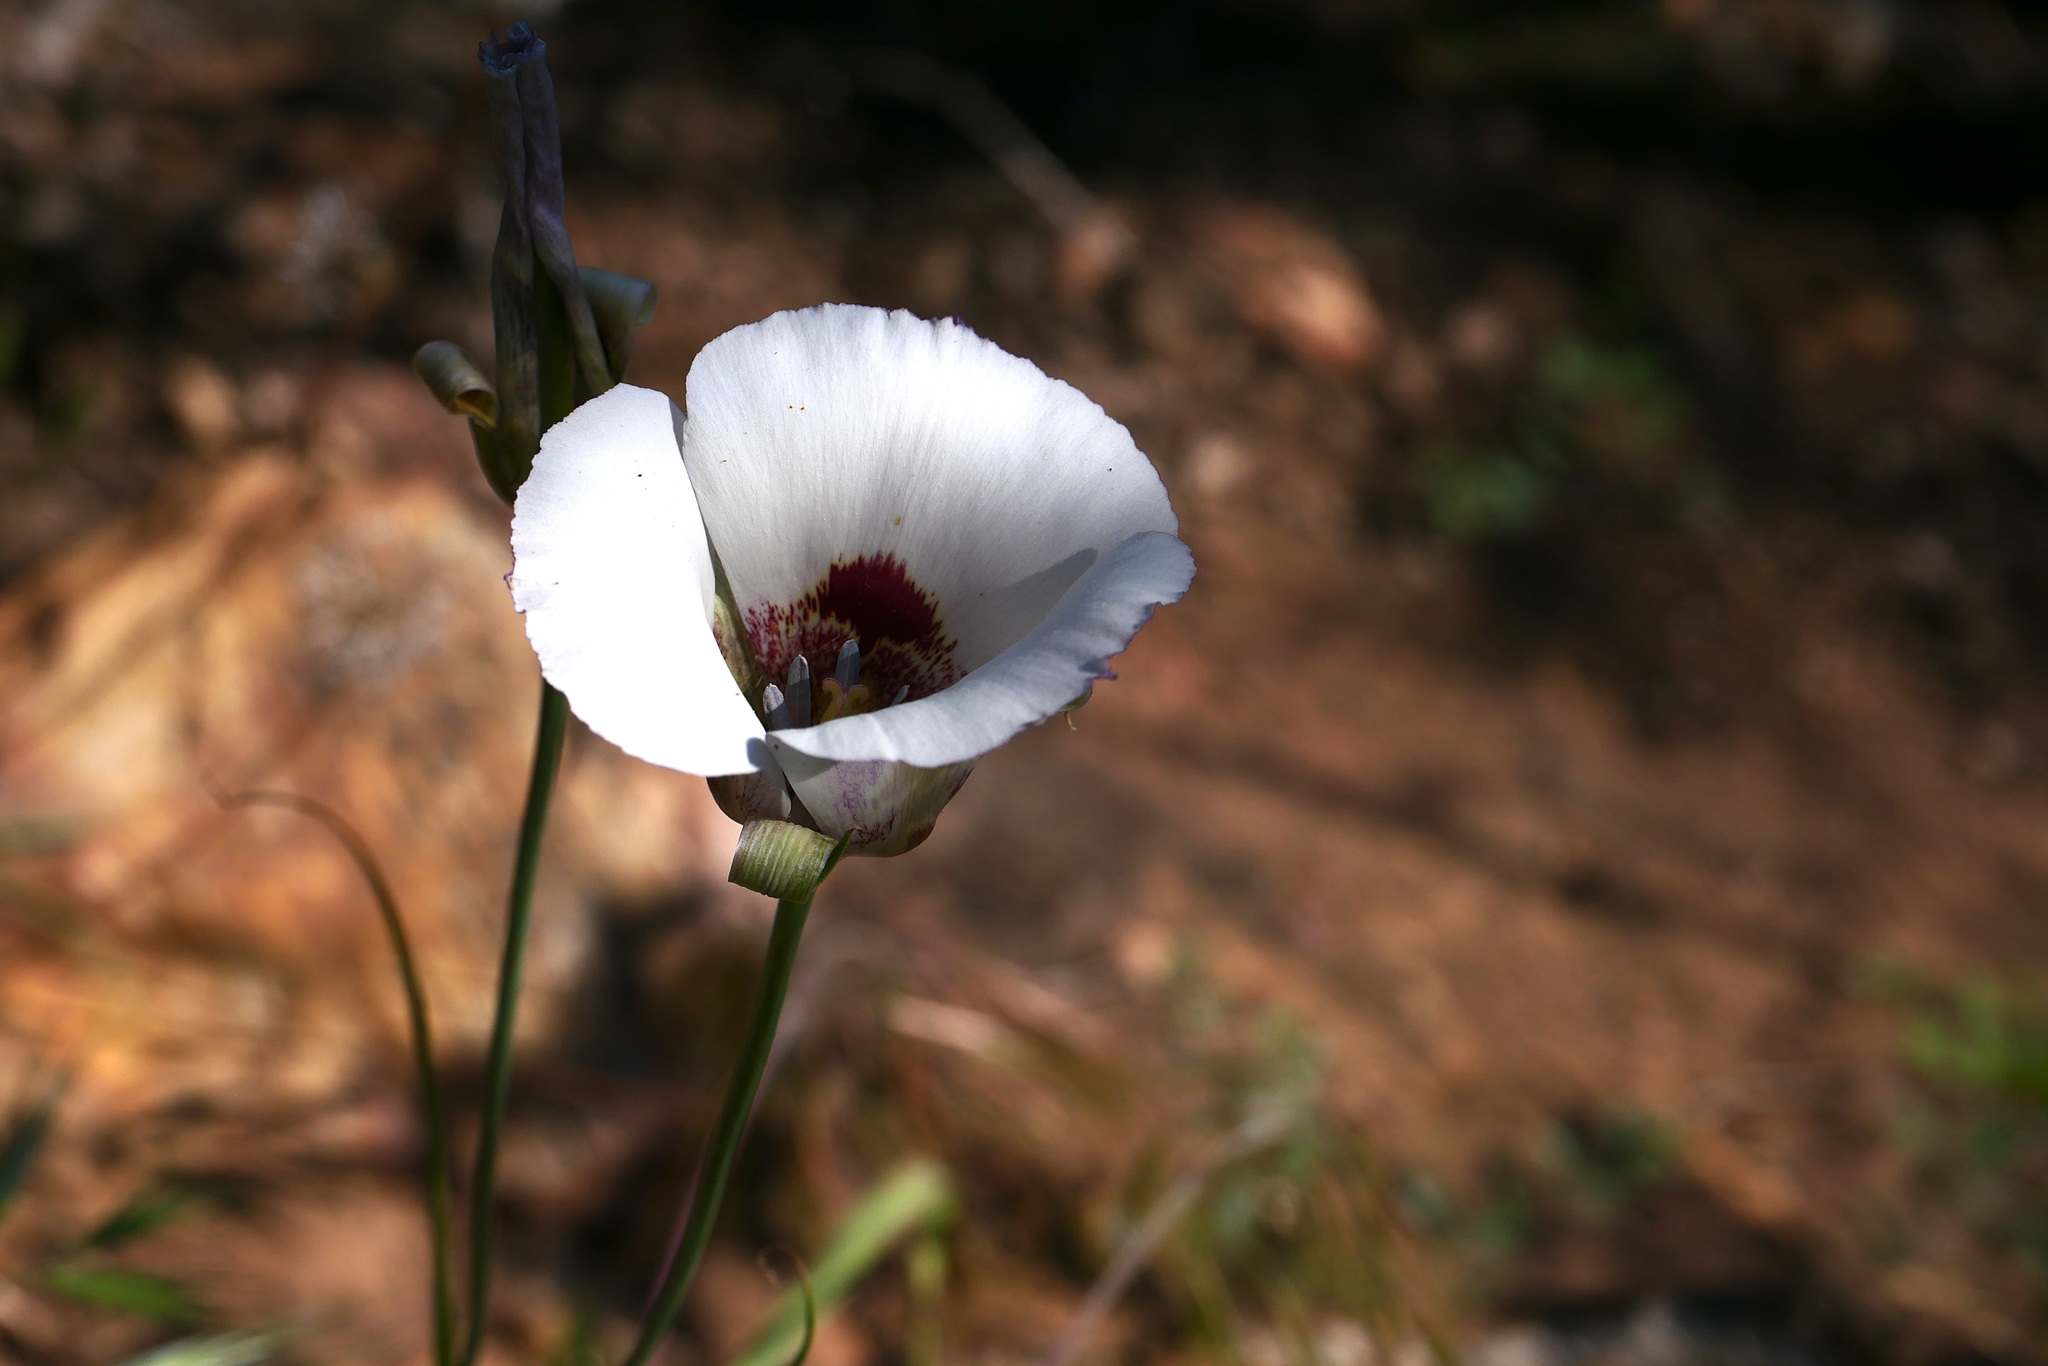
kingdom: Plantae
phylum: Tracheophyta
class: Liliopsida
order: Liliales
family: Liliaceae
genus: Calochortus
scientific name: Calochortus venustus
